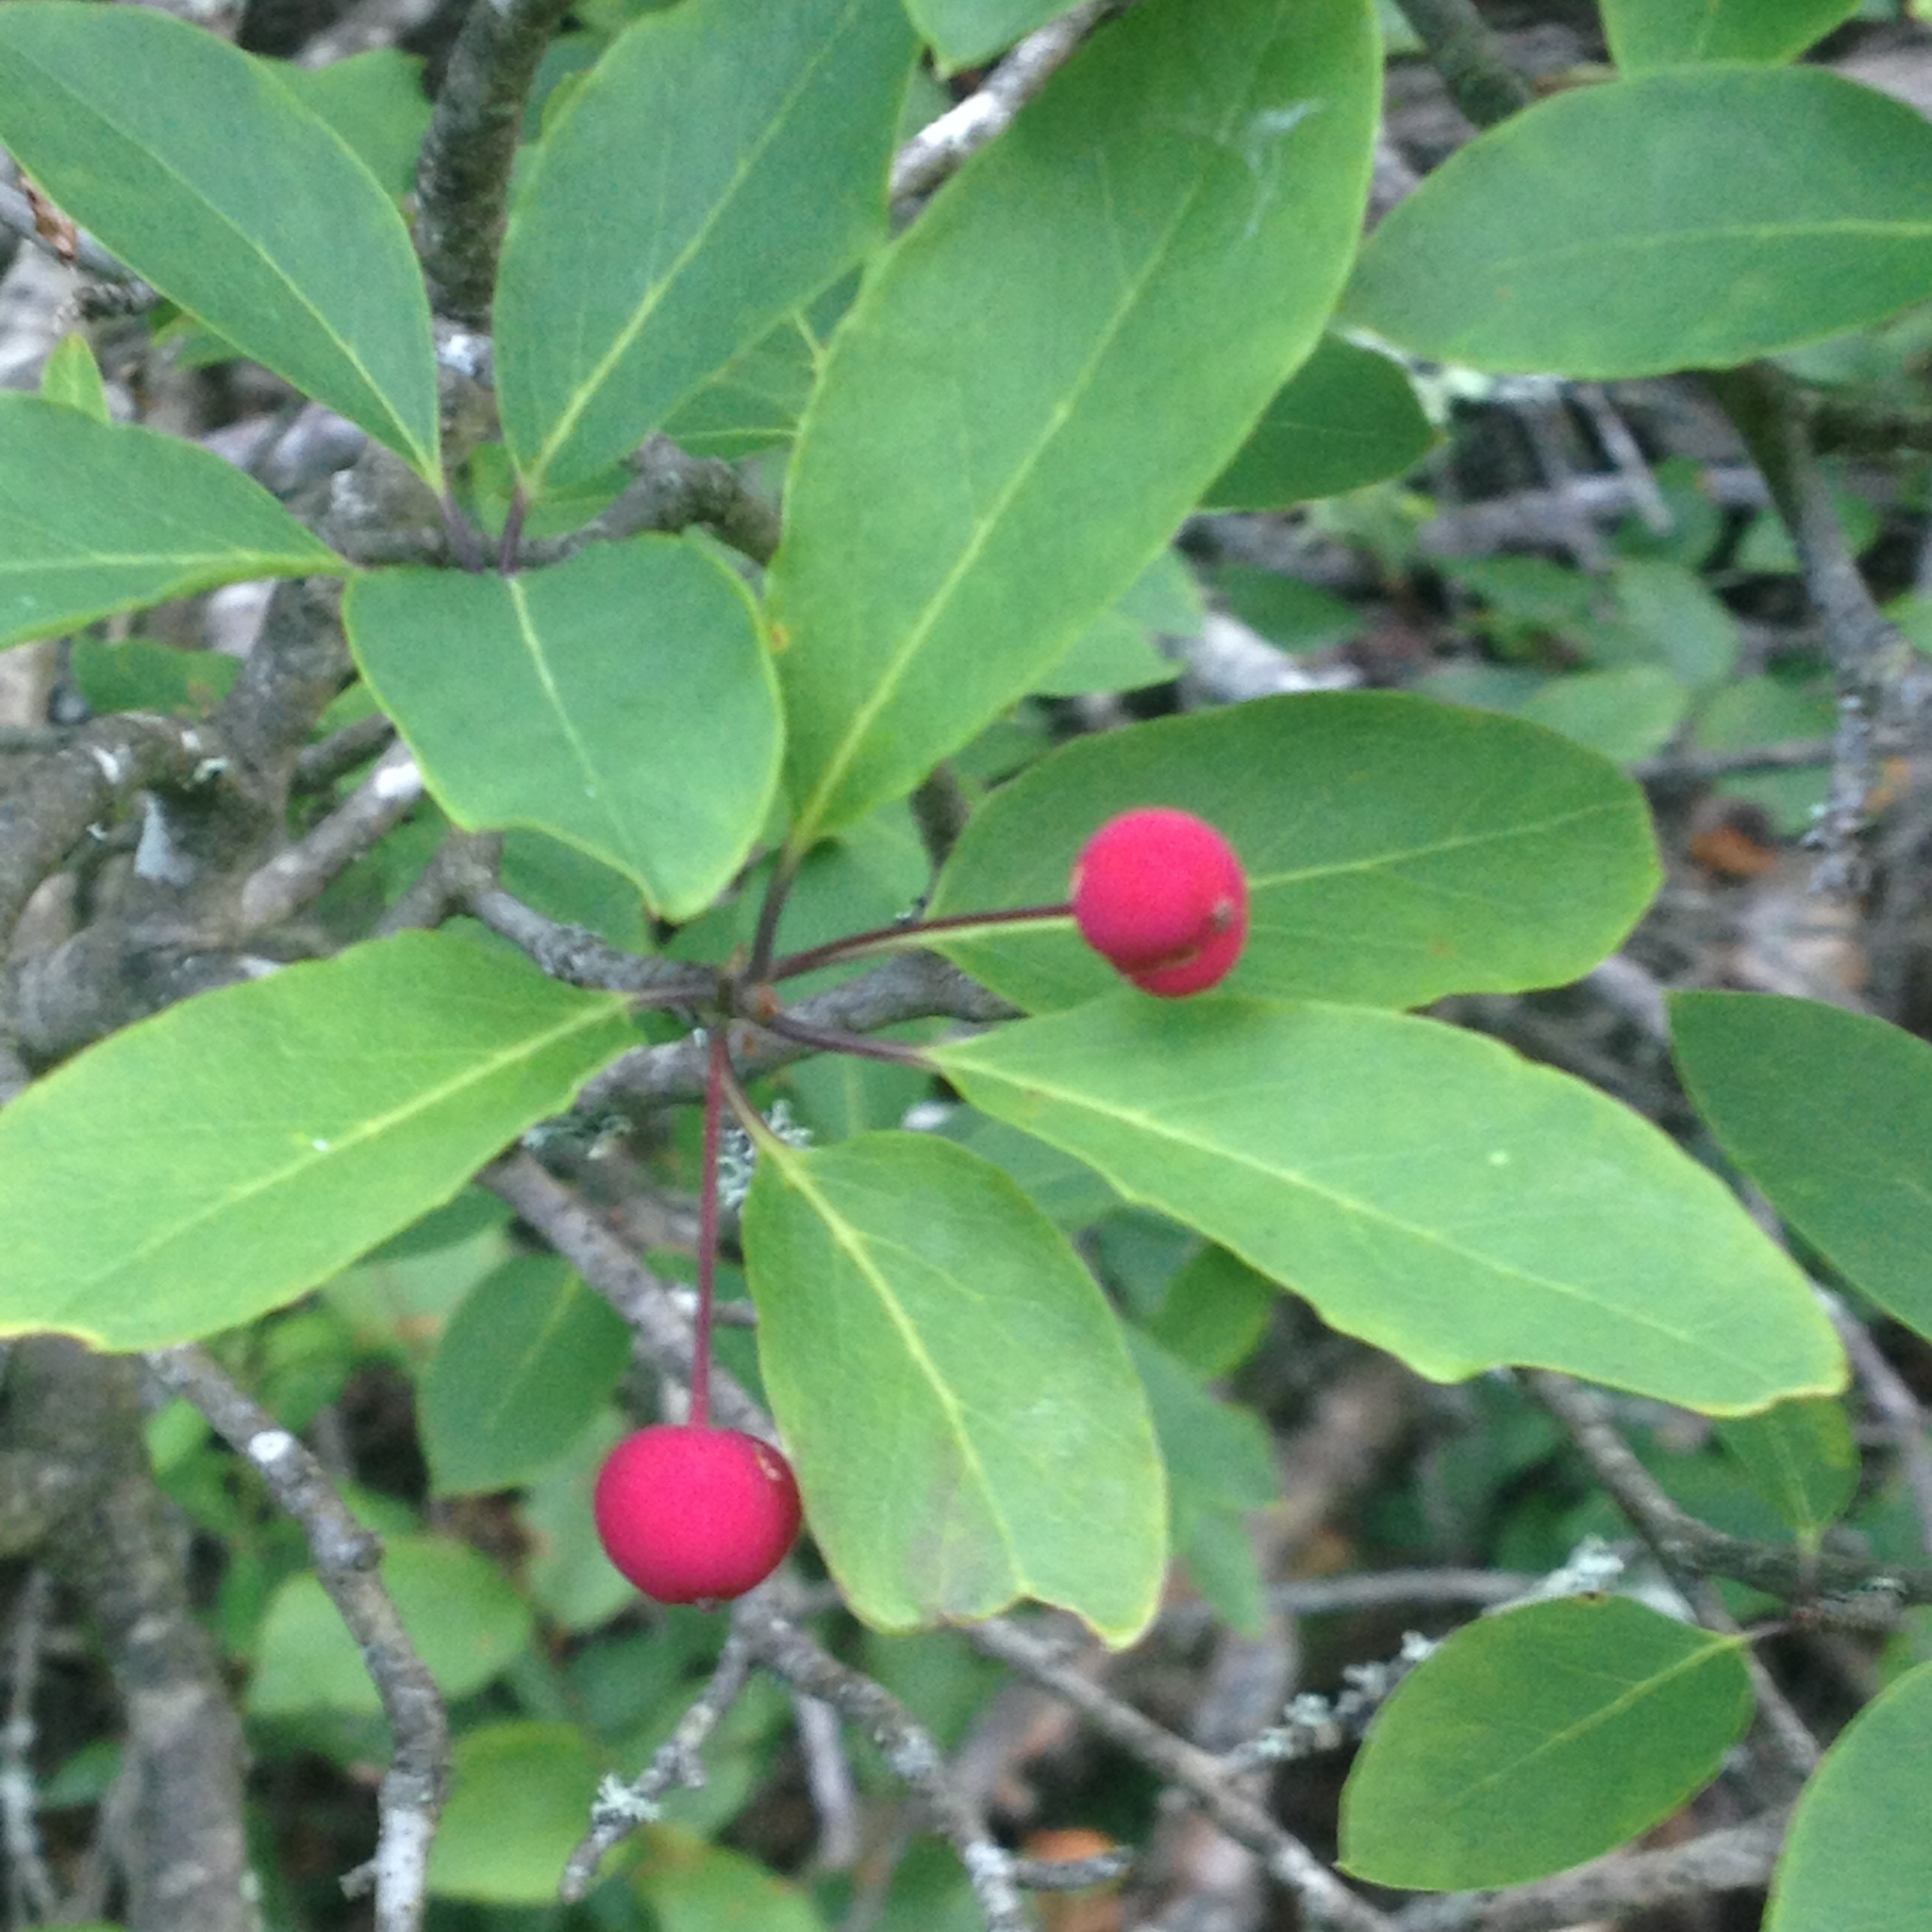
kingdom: Plantae
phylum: Tracheophyta
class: Magnoliopsida
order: Aquifoliales
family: Aquifoliaceae
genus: Ilex
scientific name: Ilex mucronata
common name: Catberry
